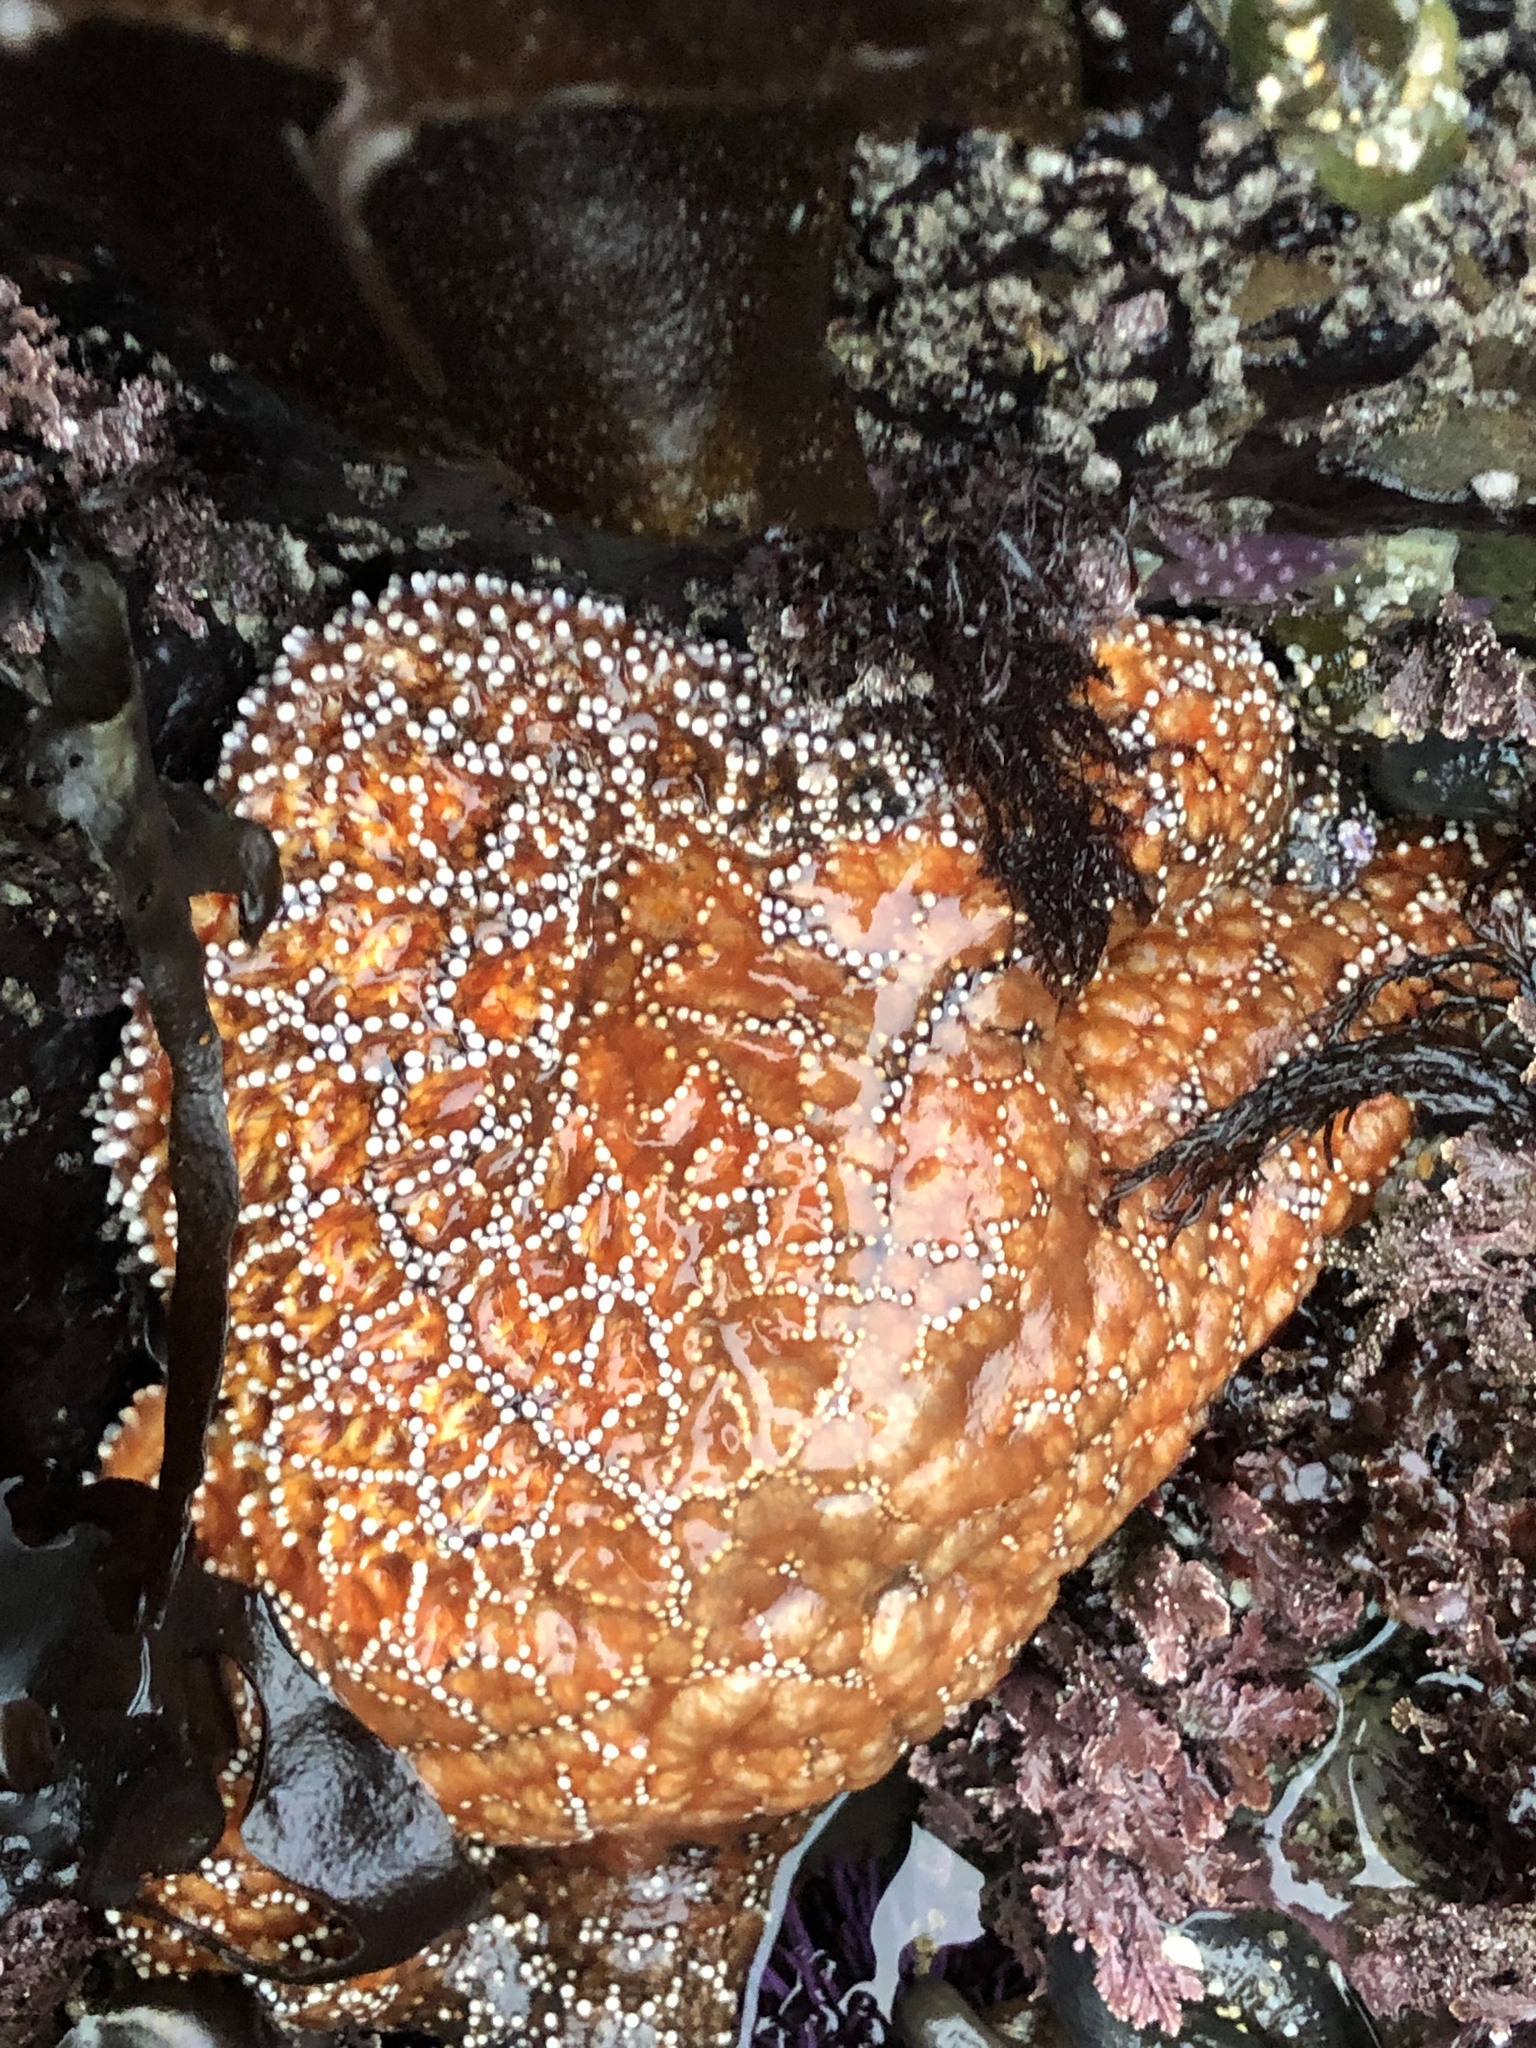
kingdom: Animalia
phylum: Echinodermata
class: Asteroidea
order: Forcipulatida
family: Asteriidae
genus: Pisaster
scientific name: Pisaster ochraceus
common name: Ochre stars
